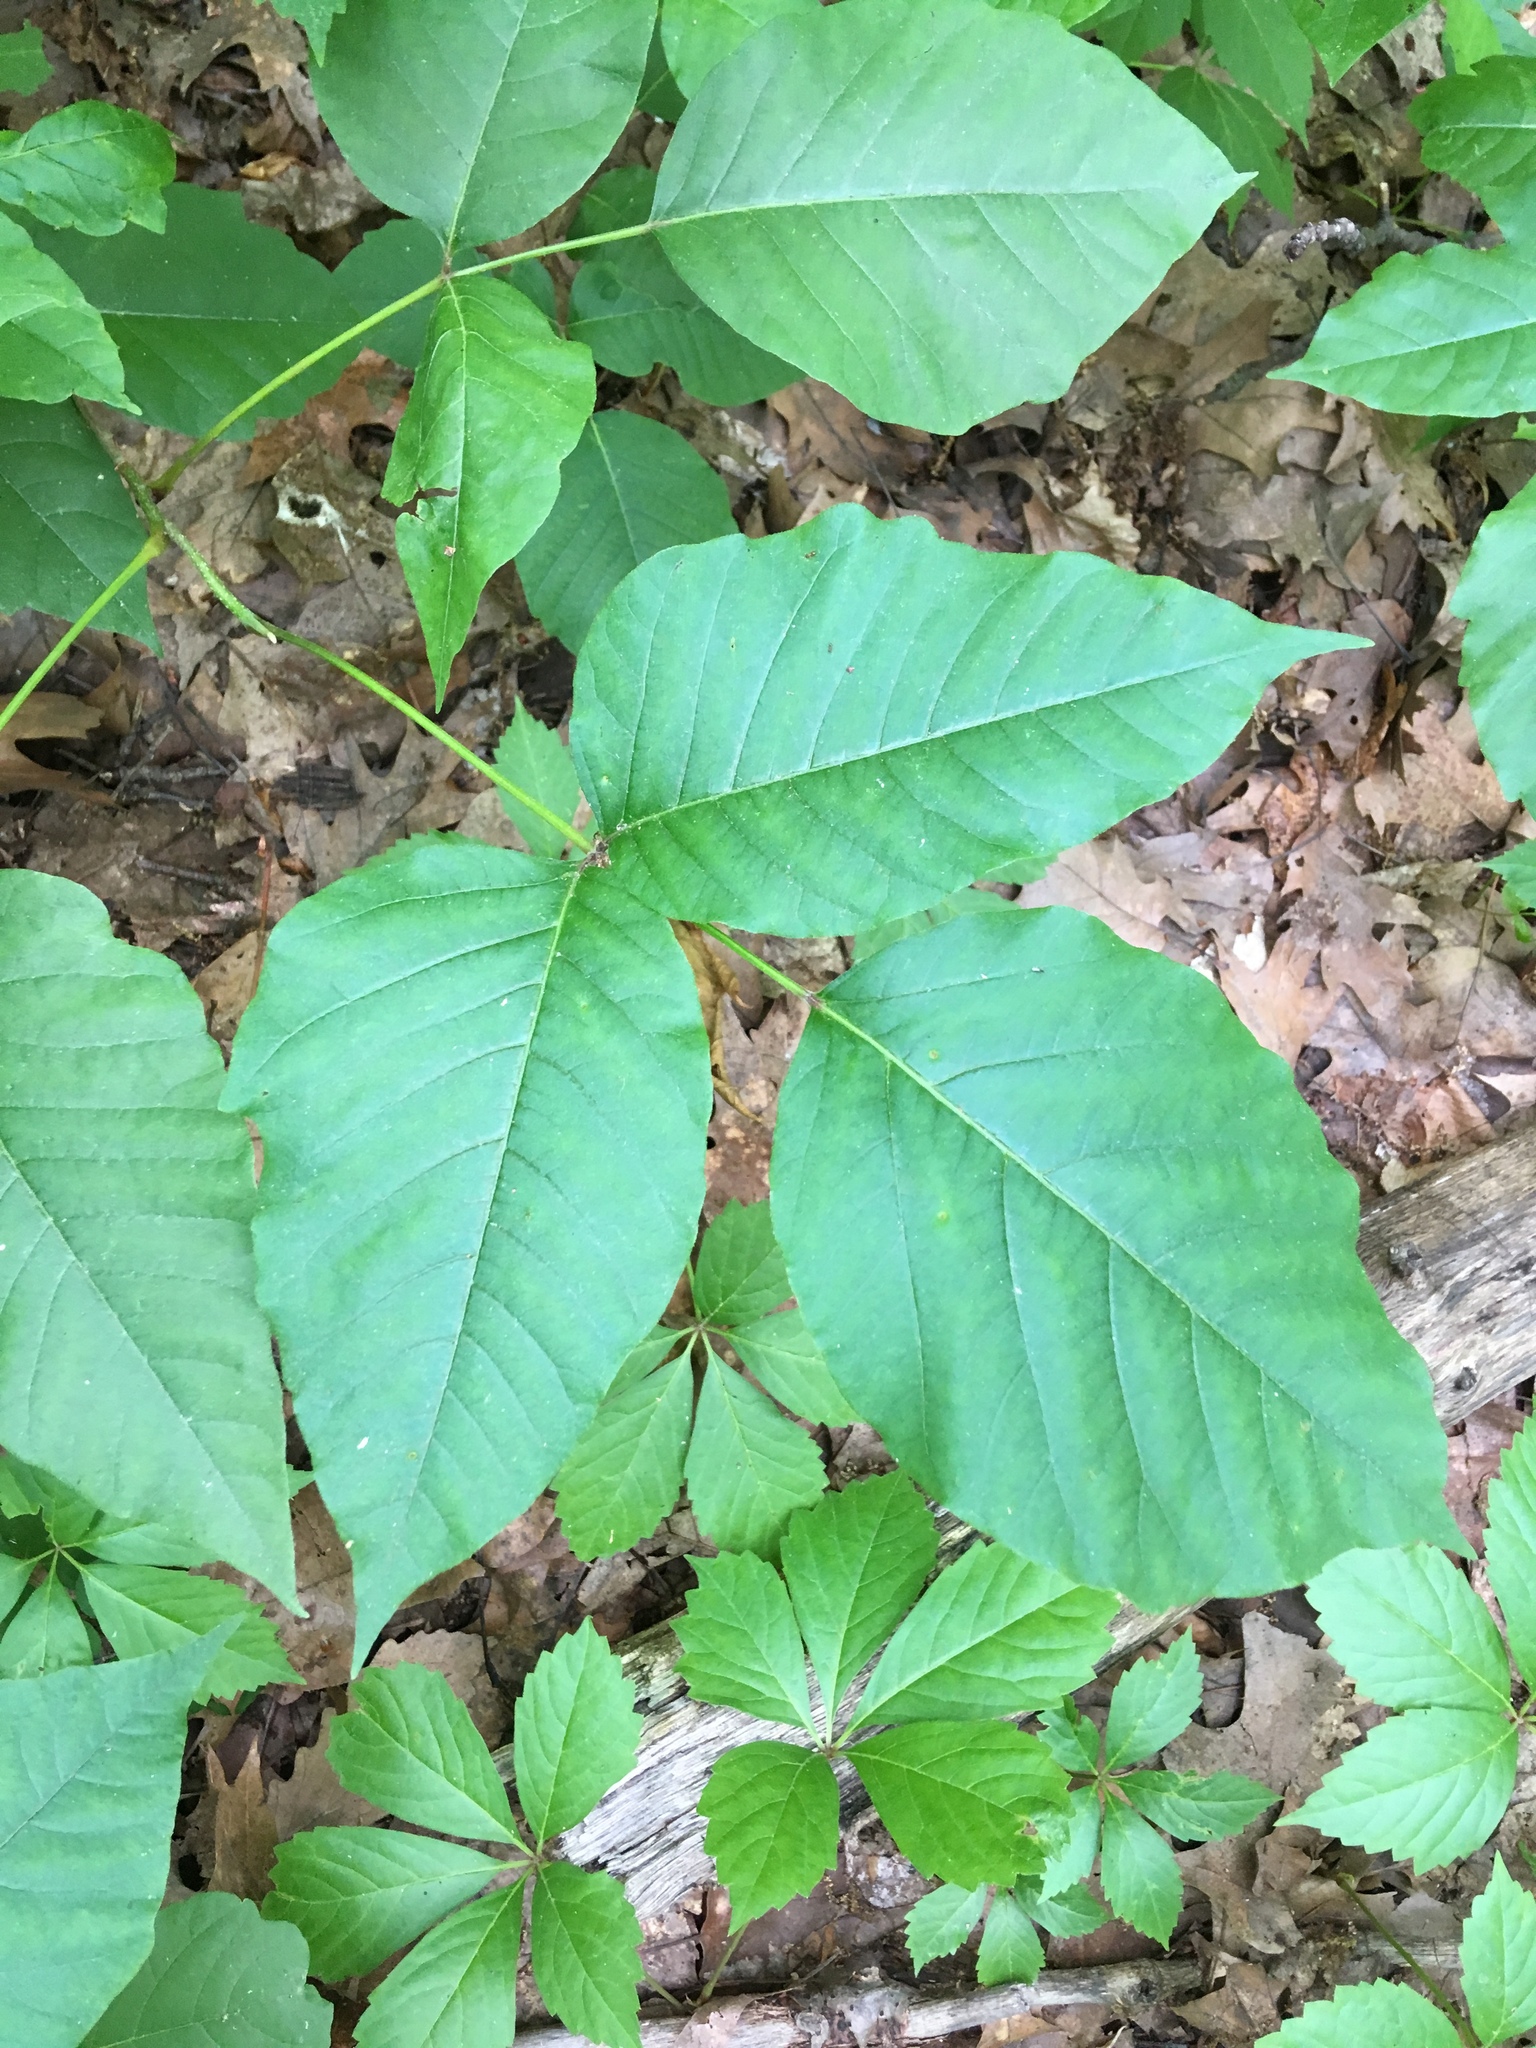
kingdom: Plantae
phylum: Tracheophyta
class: Magnoliopsida
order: Sapindales
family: Anacardiaceae
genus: Toxicodendron
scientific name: Toxicodendron radicans
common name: Poison ivy
